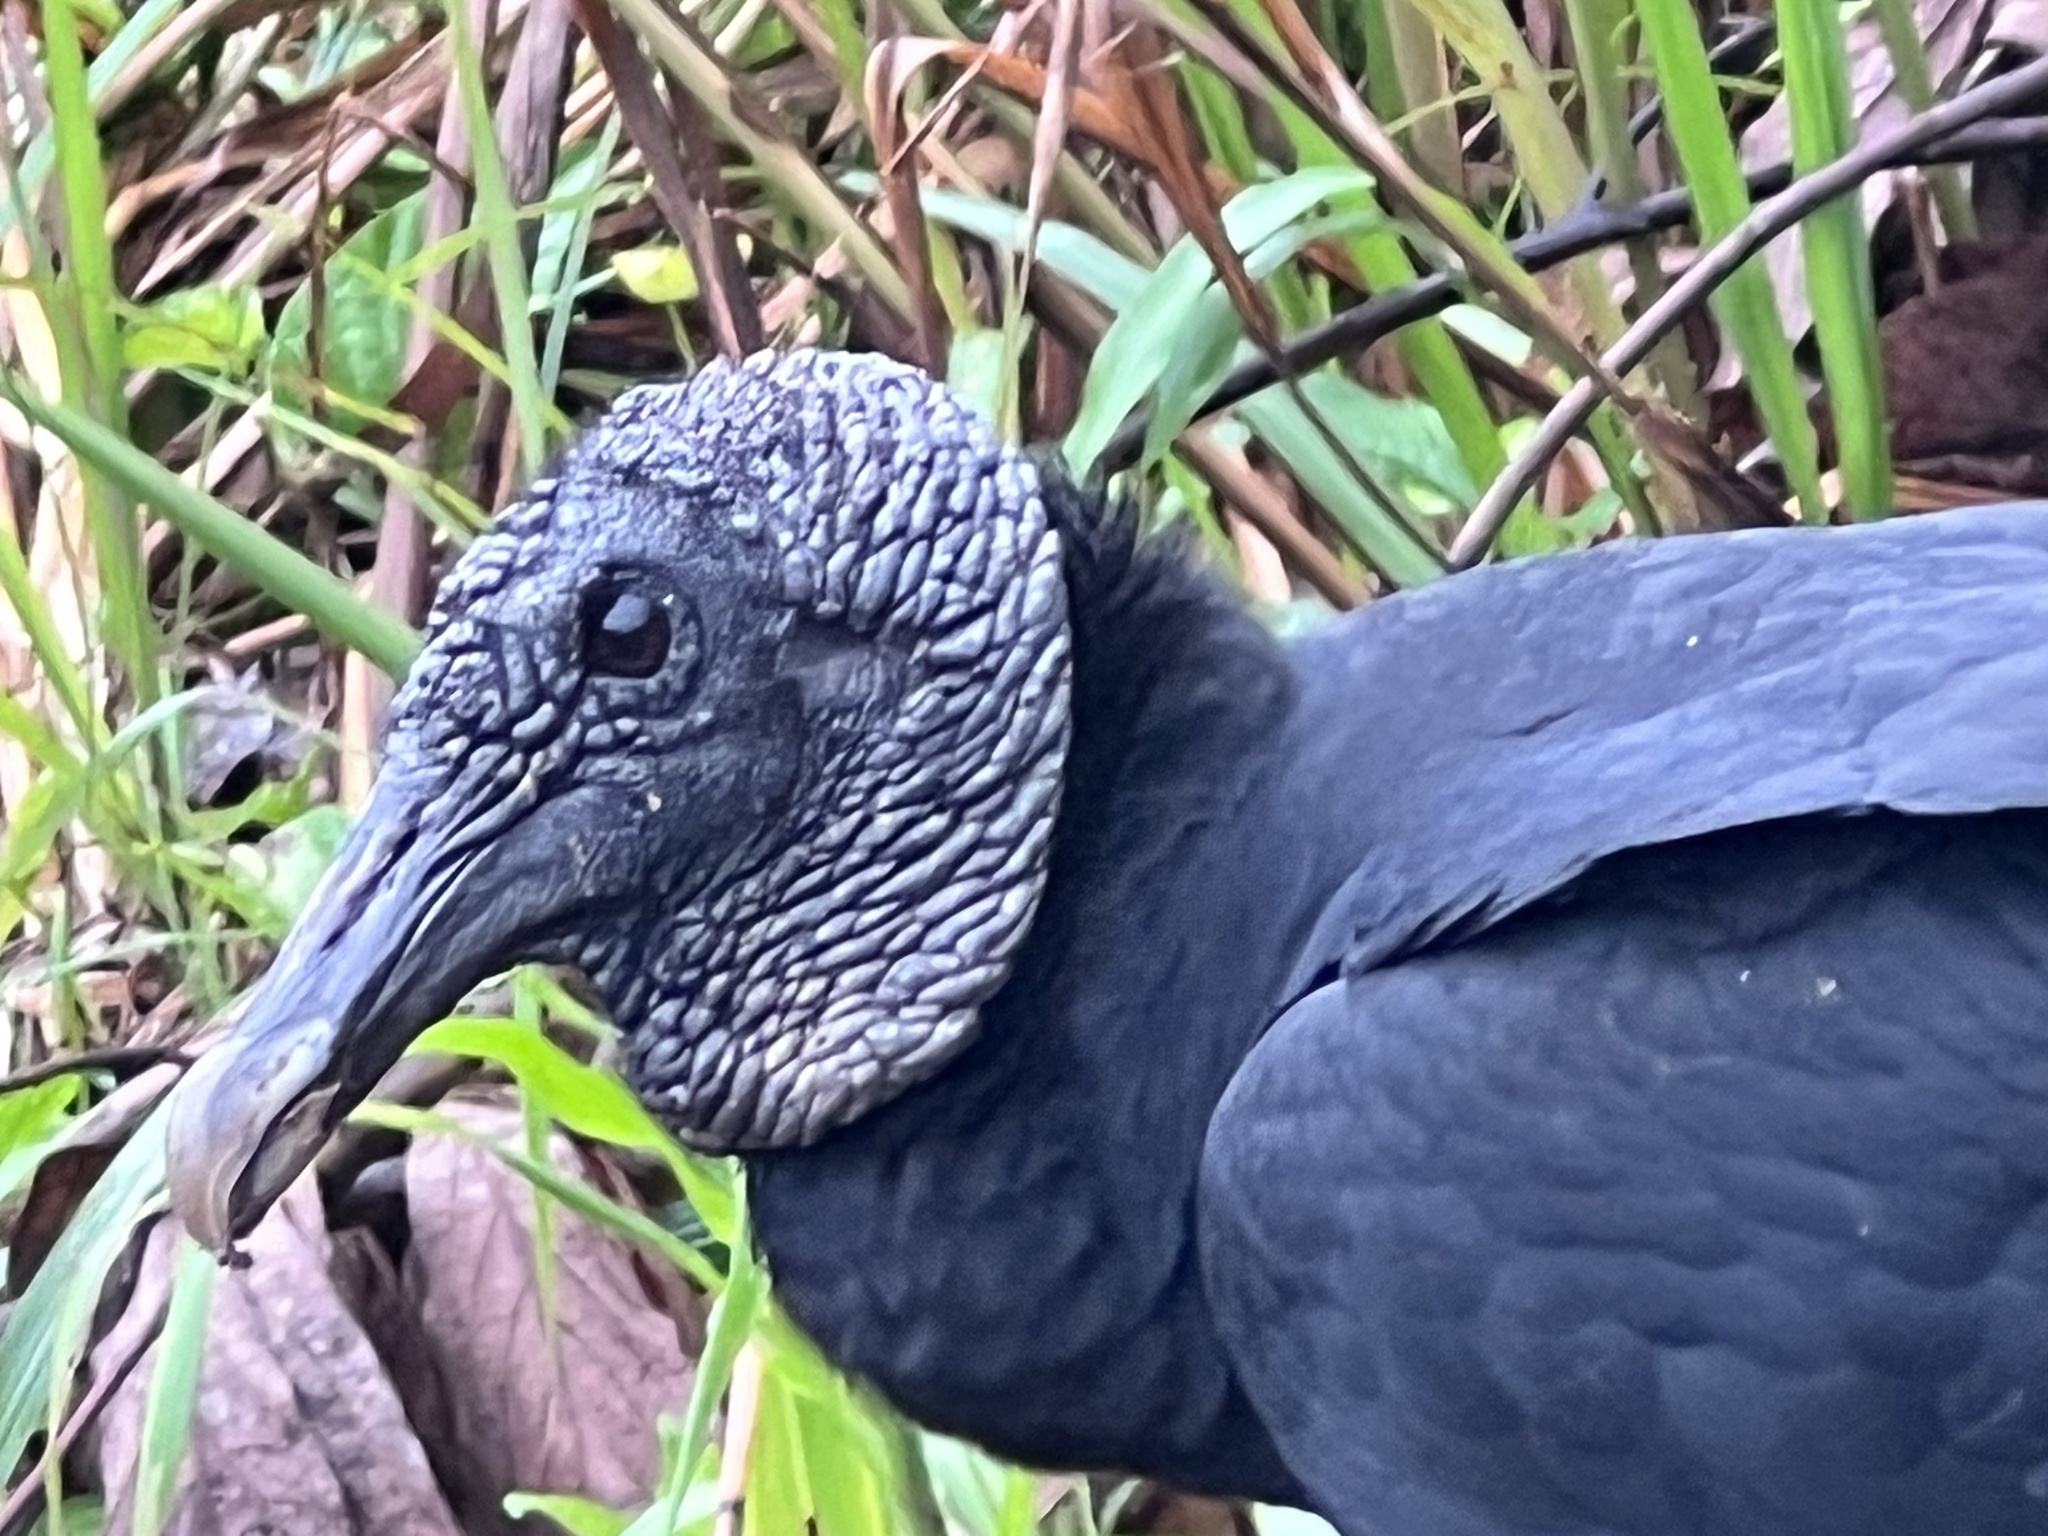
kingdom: Animalia
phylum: Chordata
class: Aves
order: Accipitriformes
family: Cathartidae
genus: Coragyps
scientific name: Coragyps atratus
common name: Black vulture
